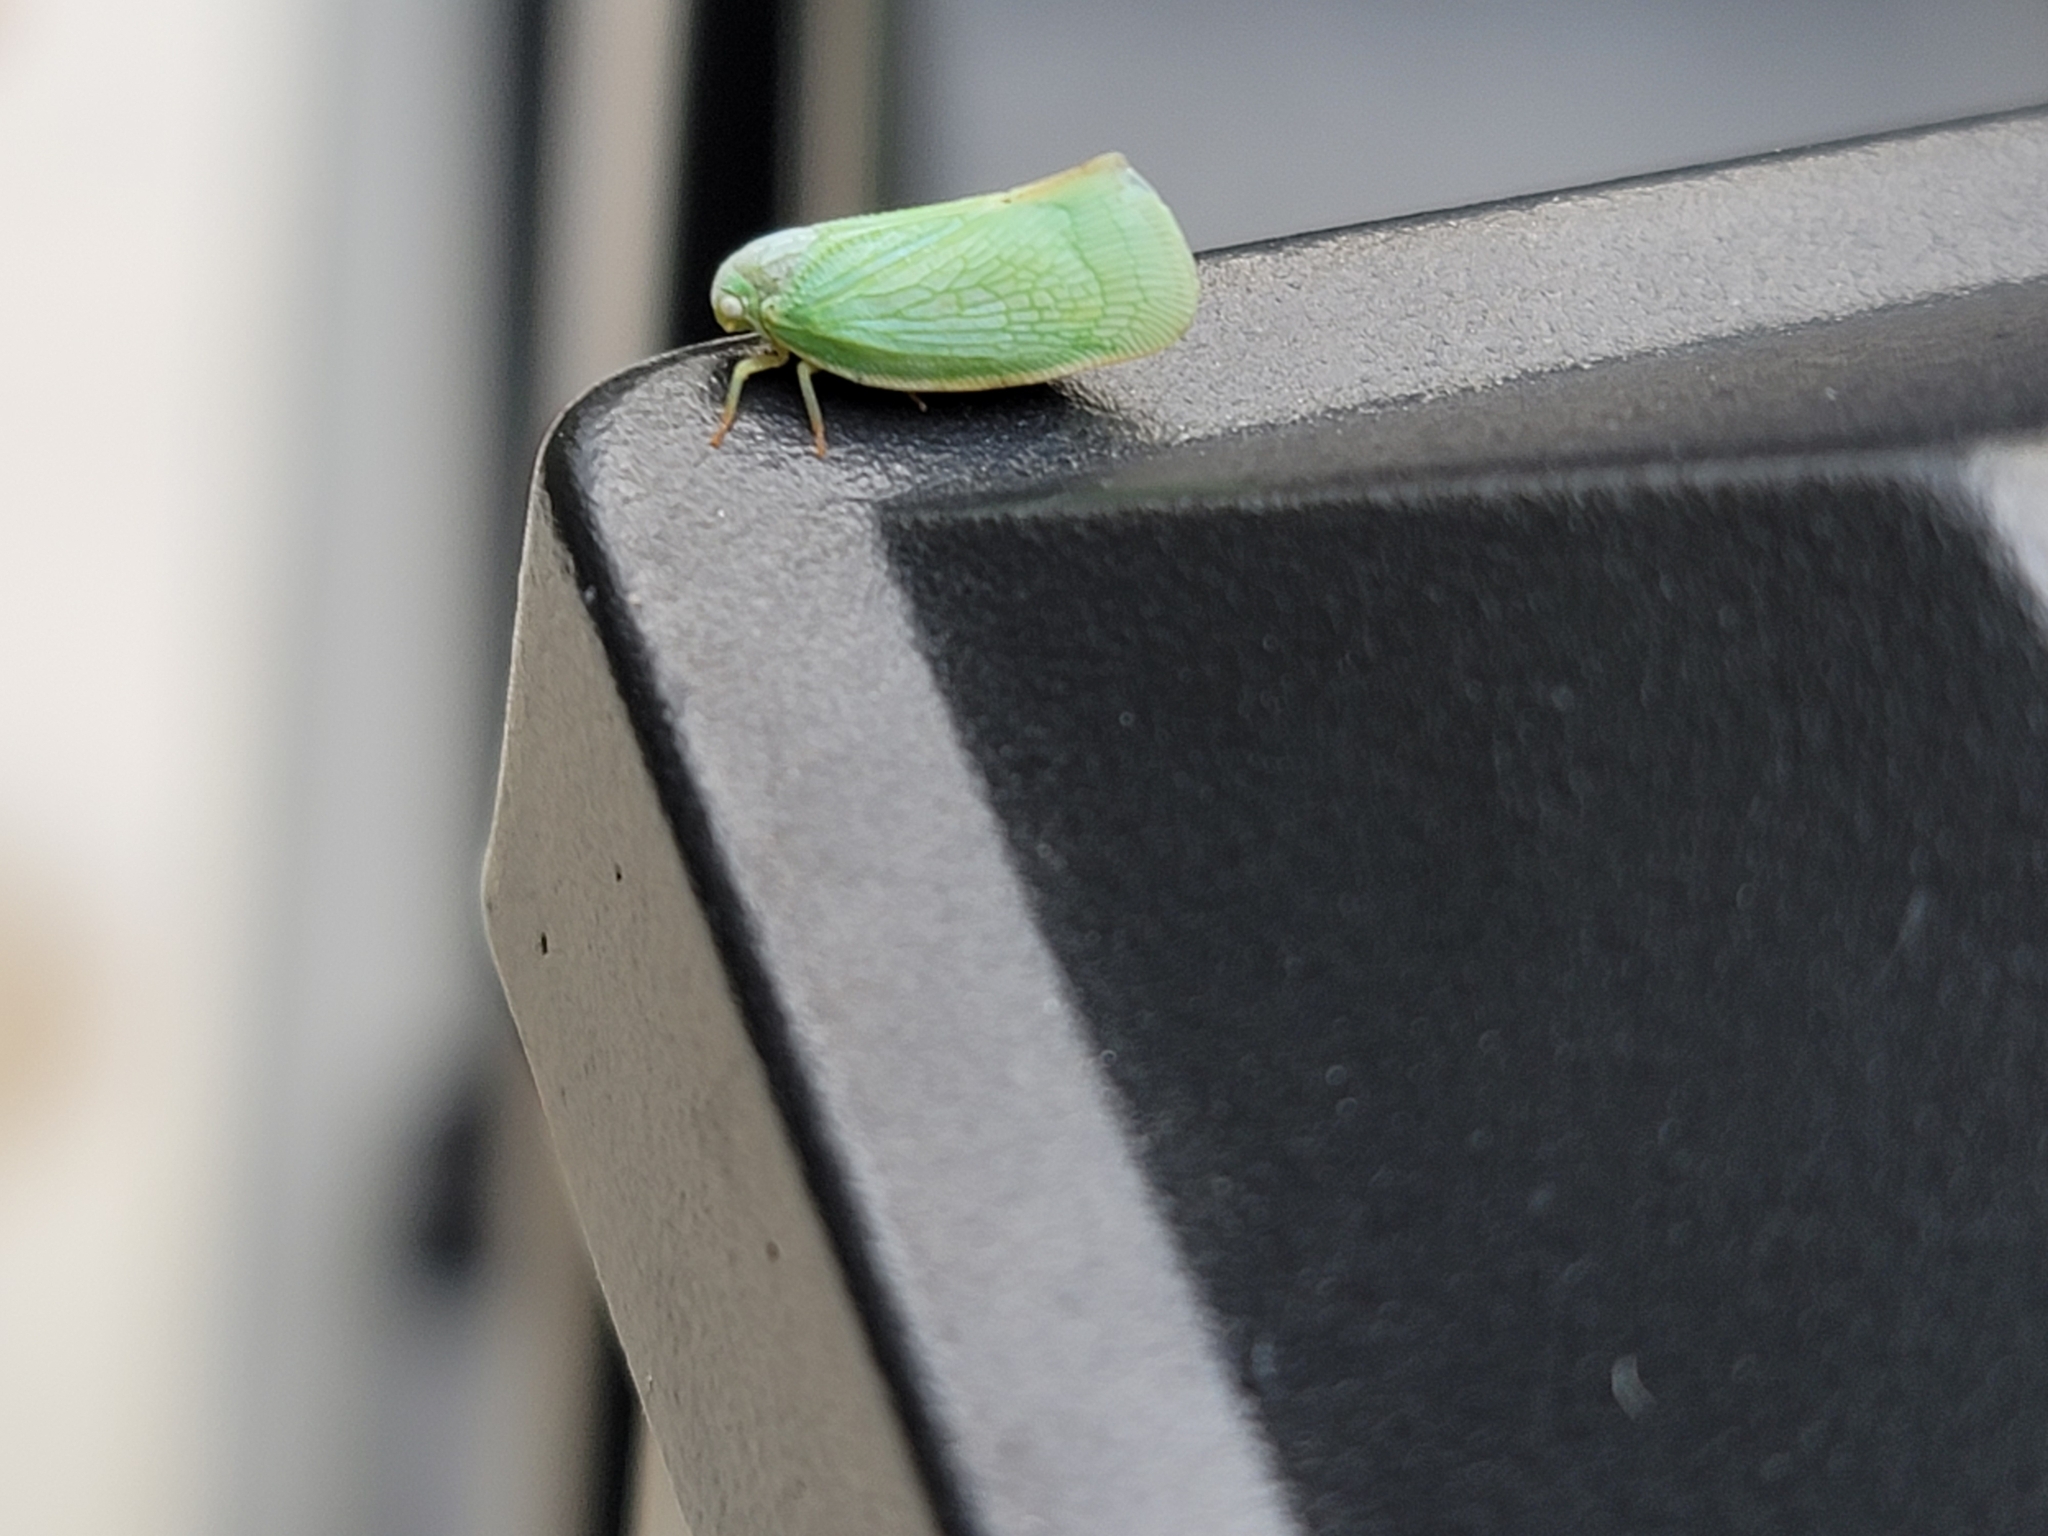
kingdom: Animalia
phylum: Arthropoda
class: Insecta
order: Hemiptera
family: Flatidae
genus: Flatormenis
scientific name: Flatormenis proxima
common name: Northern flatid planthopper
